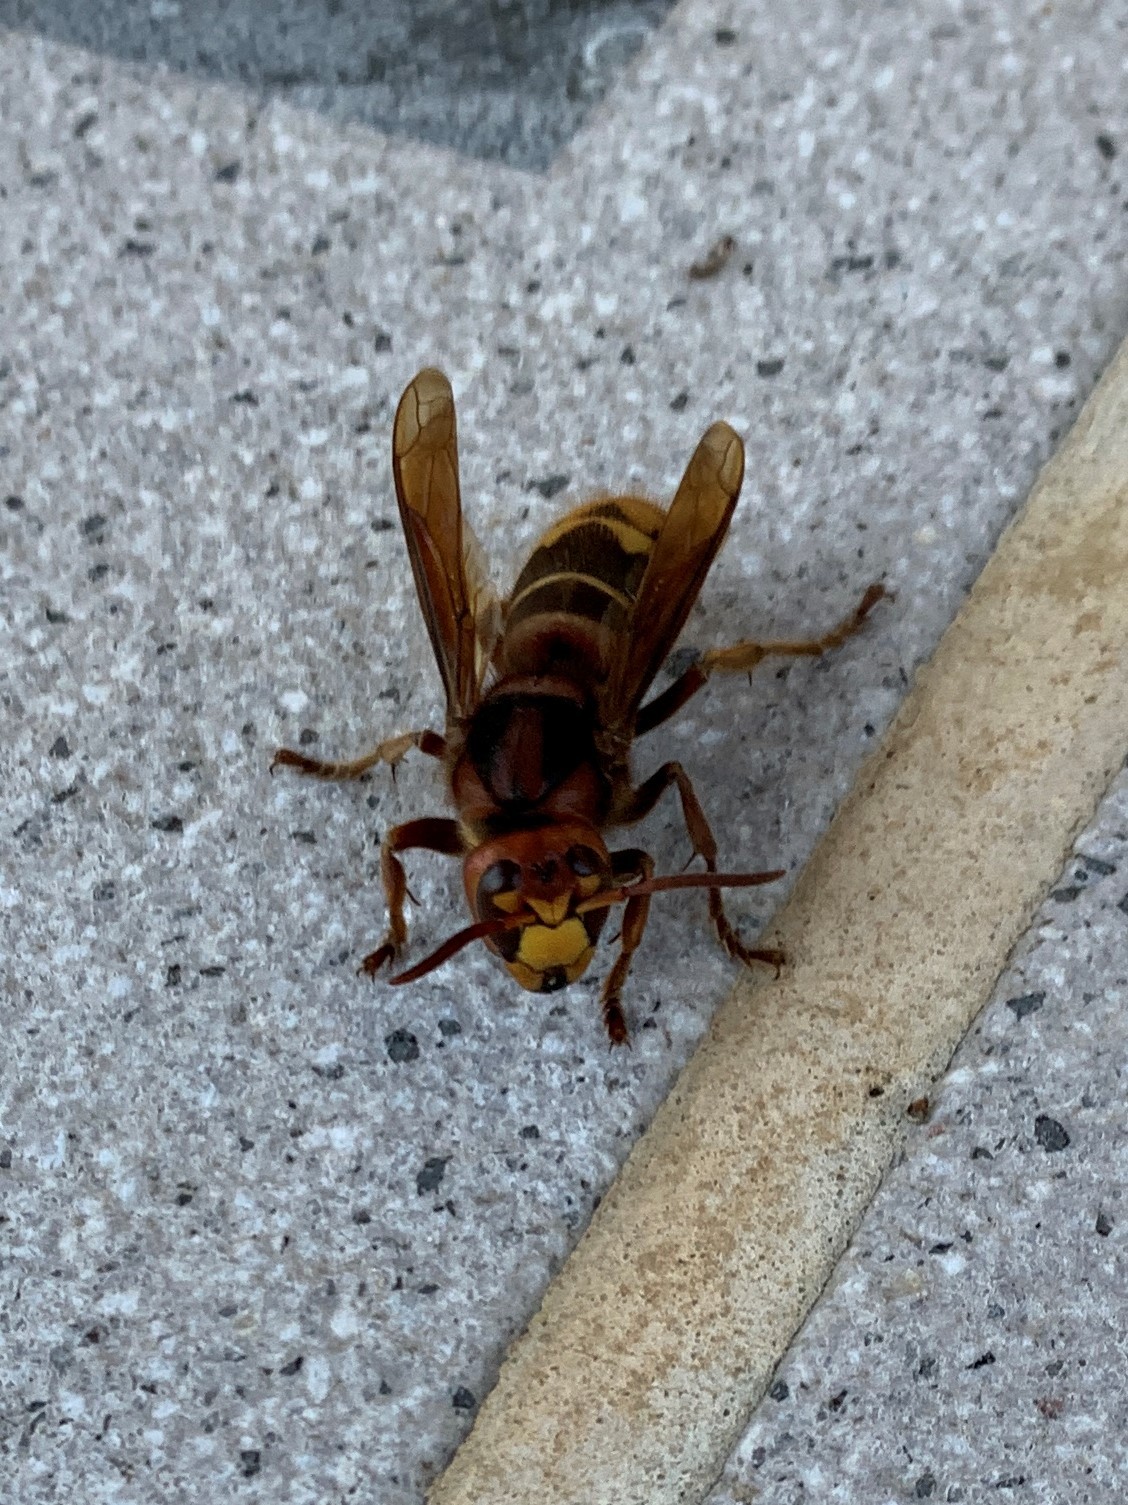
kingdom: Animalia
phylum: Arthropoda
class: Insecta
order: Hymenoptera
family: Vespidae
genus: Vespa
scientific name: Vespa crabro
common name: Hornet
